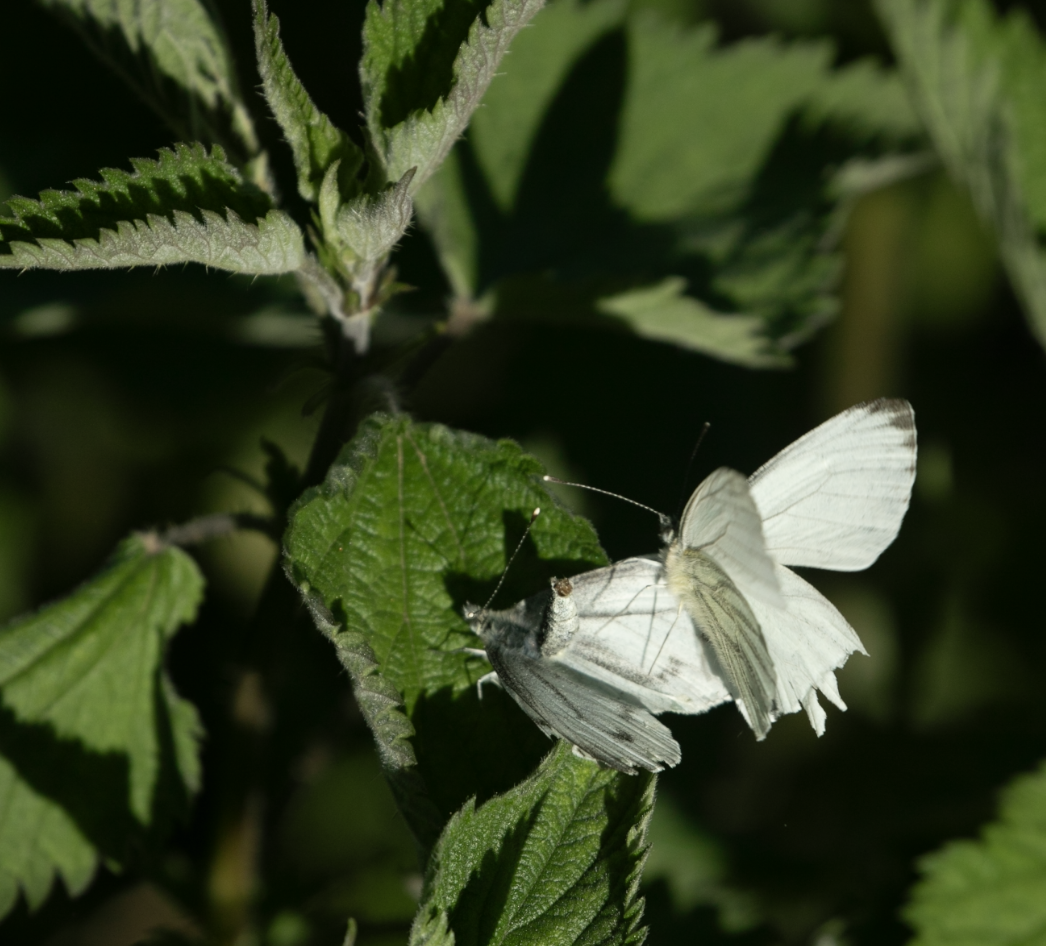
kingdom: Animalia
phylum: Arthropoda
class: Insecta
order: Lepidoptera
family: Pieridae
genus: Pieris
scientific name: Pieris napi
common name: Green-veined white
